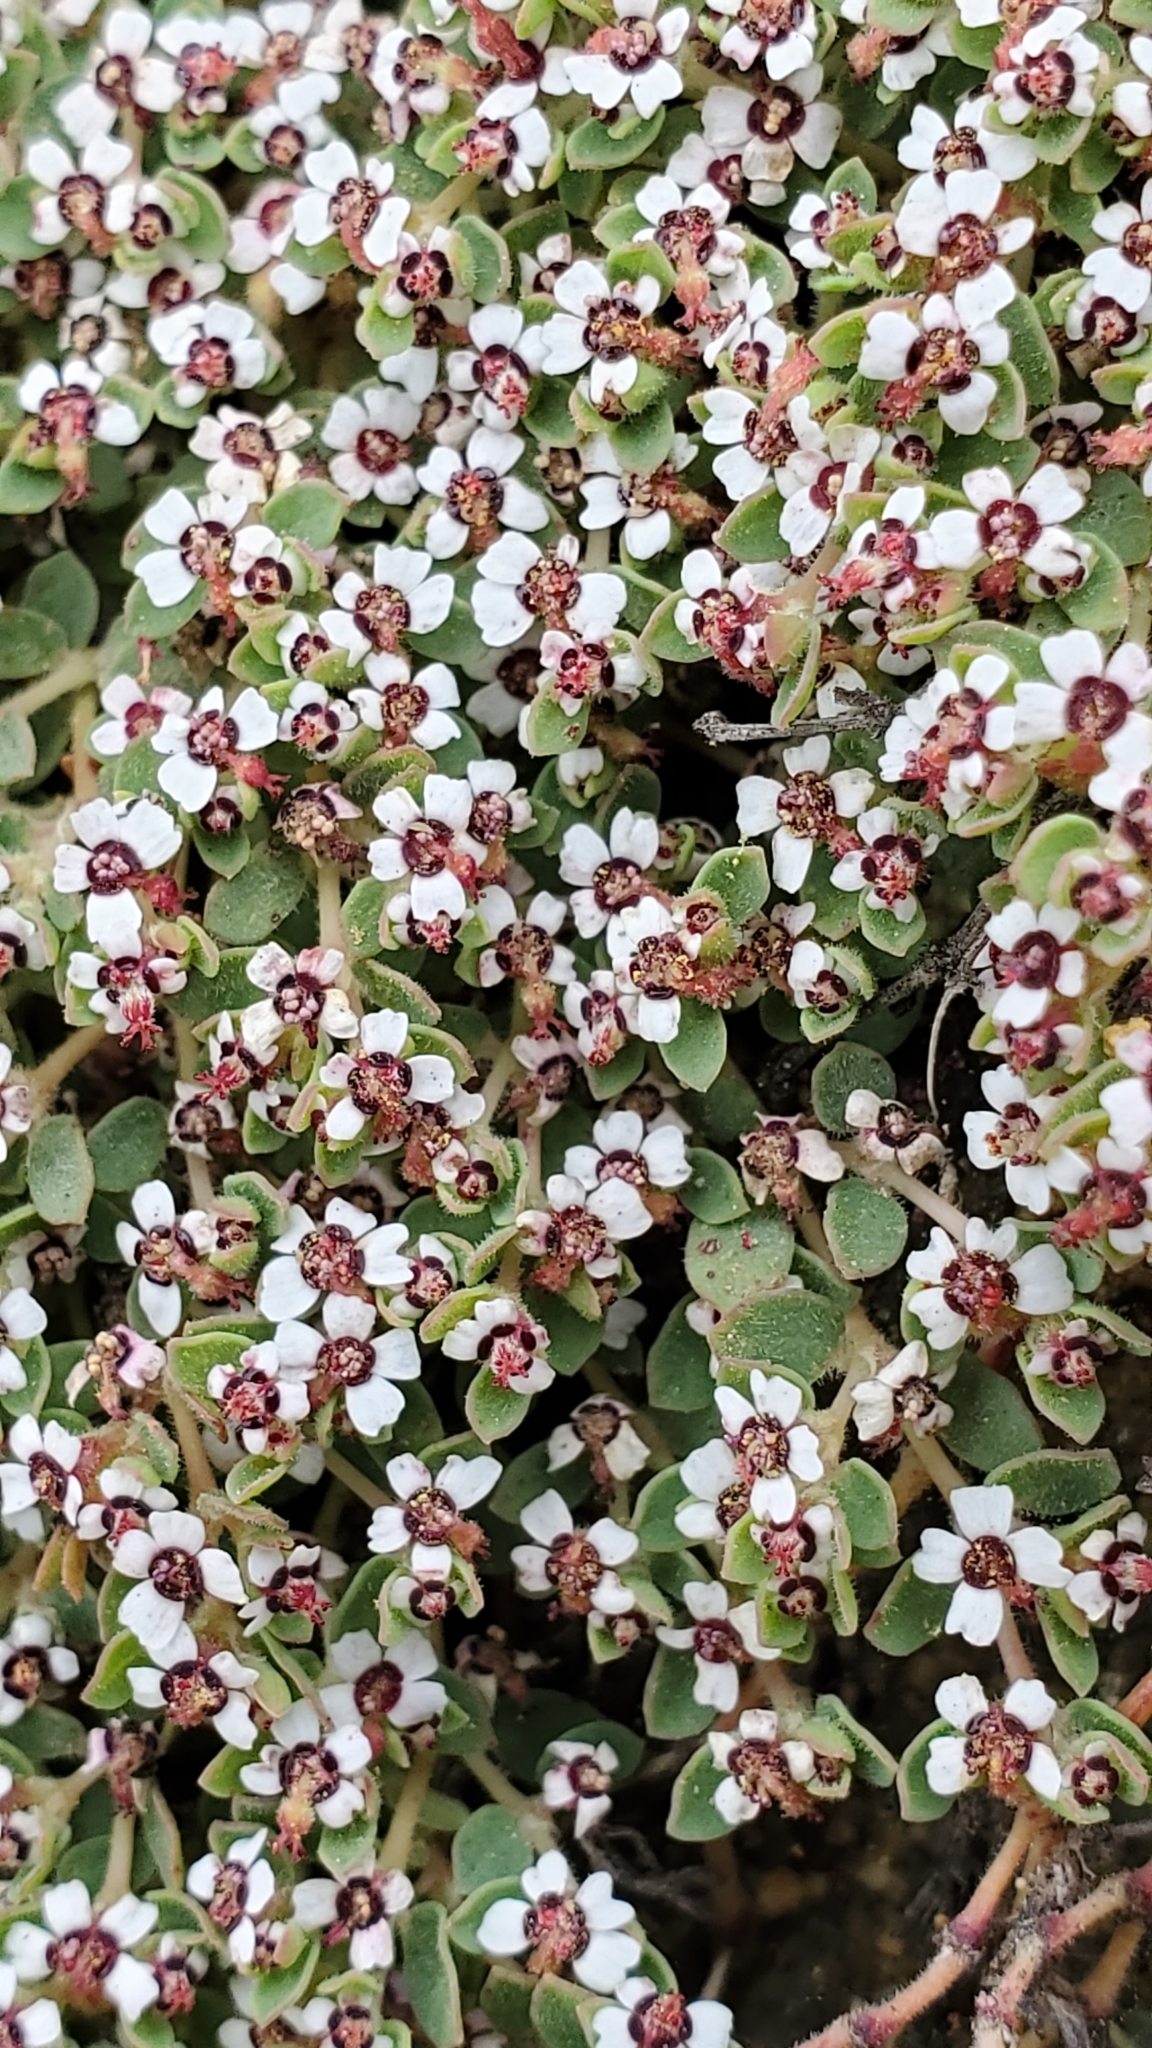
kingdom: Plantae
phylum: Tracheophyta
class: Magnoliopsida
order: Malpighiales
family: Euphorbiaceae
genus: Euphorbia
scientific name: Euphorbia polycarpa
